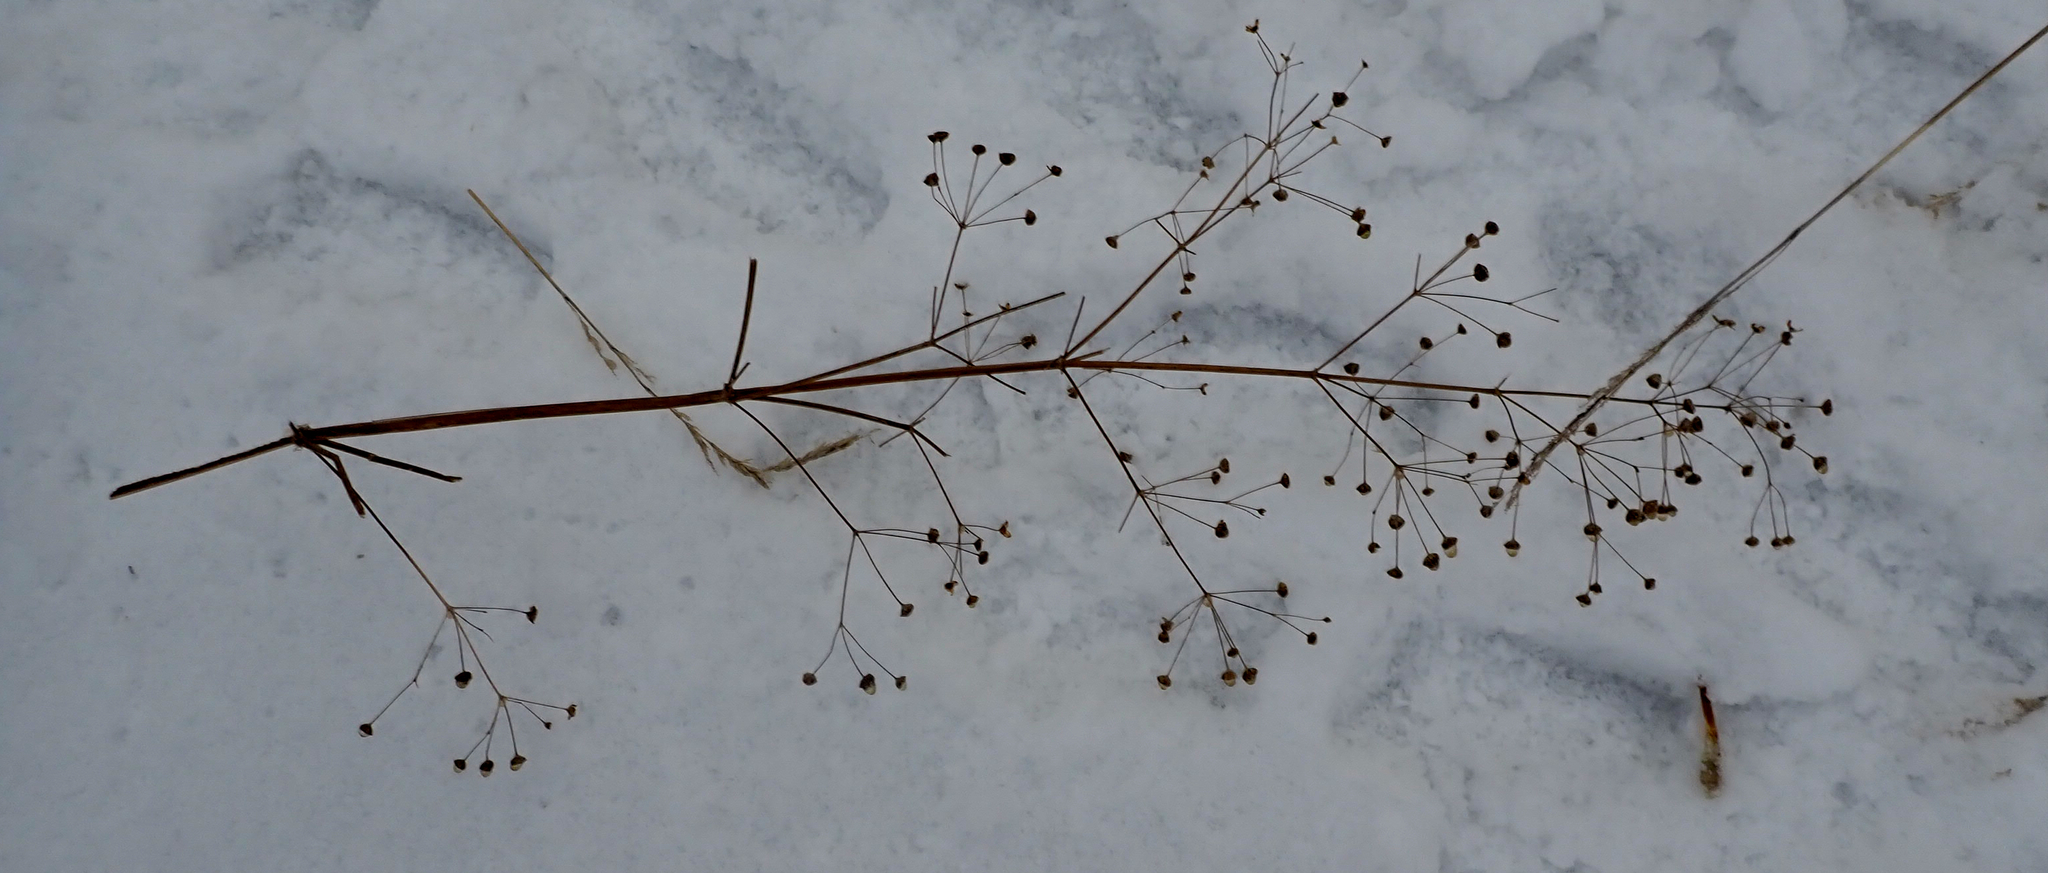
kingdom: Plantae
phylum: Tracheophyta
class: Liliopsida
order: Alismatales
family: Alismataceae
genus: Alisma
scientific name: Alisma triviale
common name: Northern water-plantain
